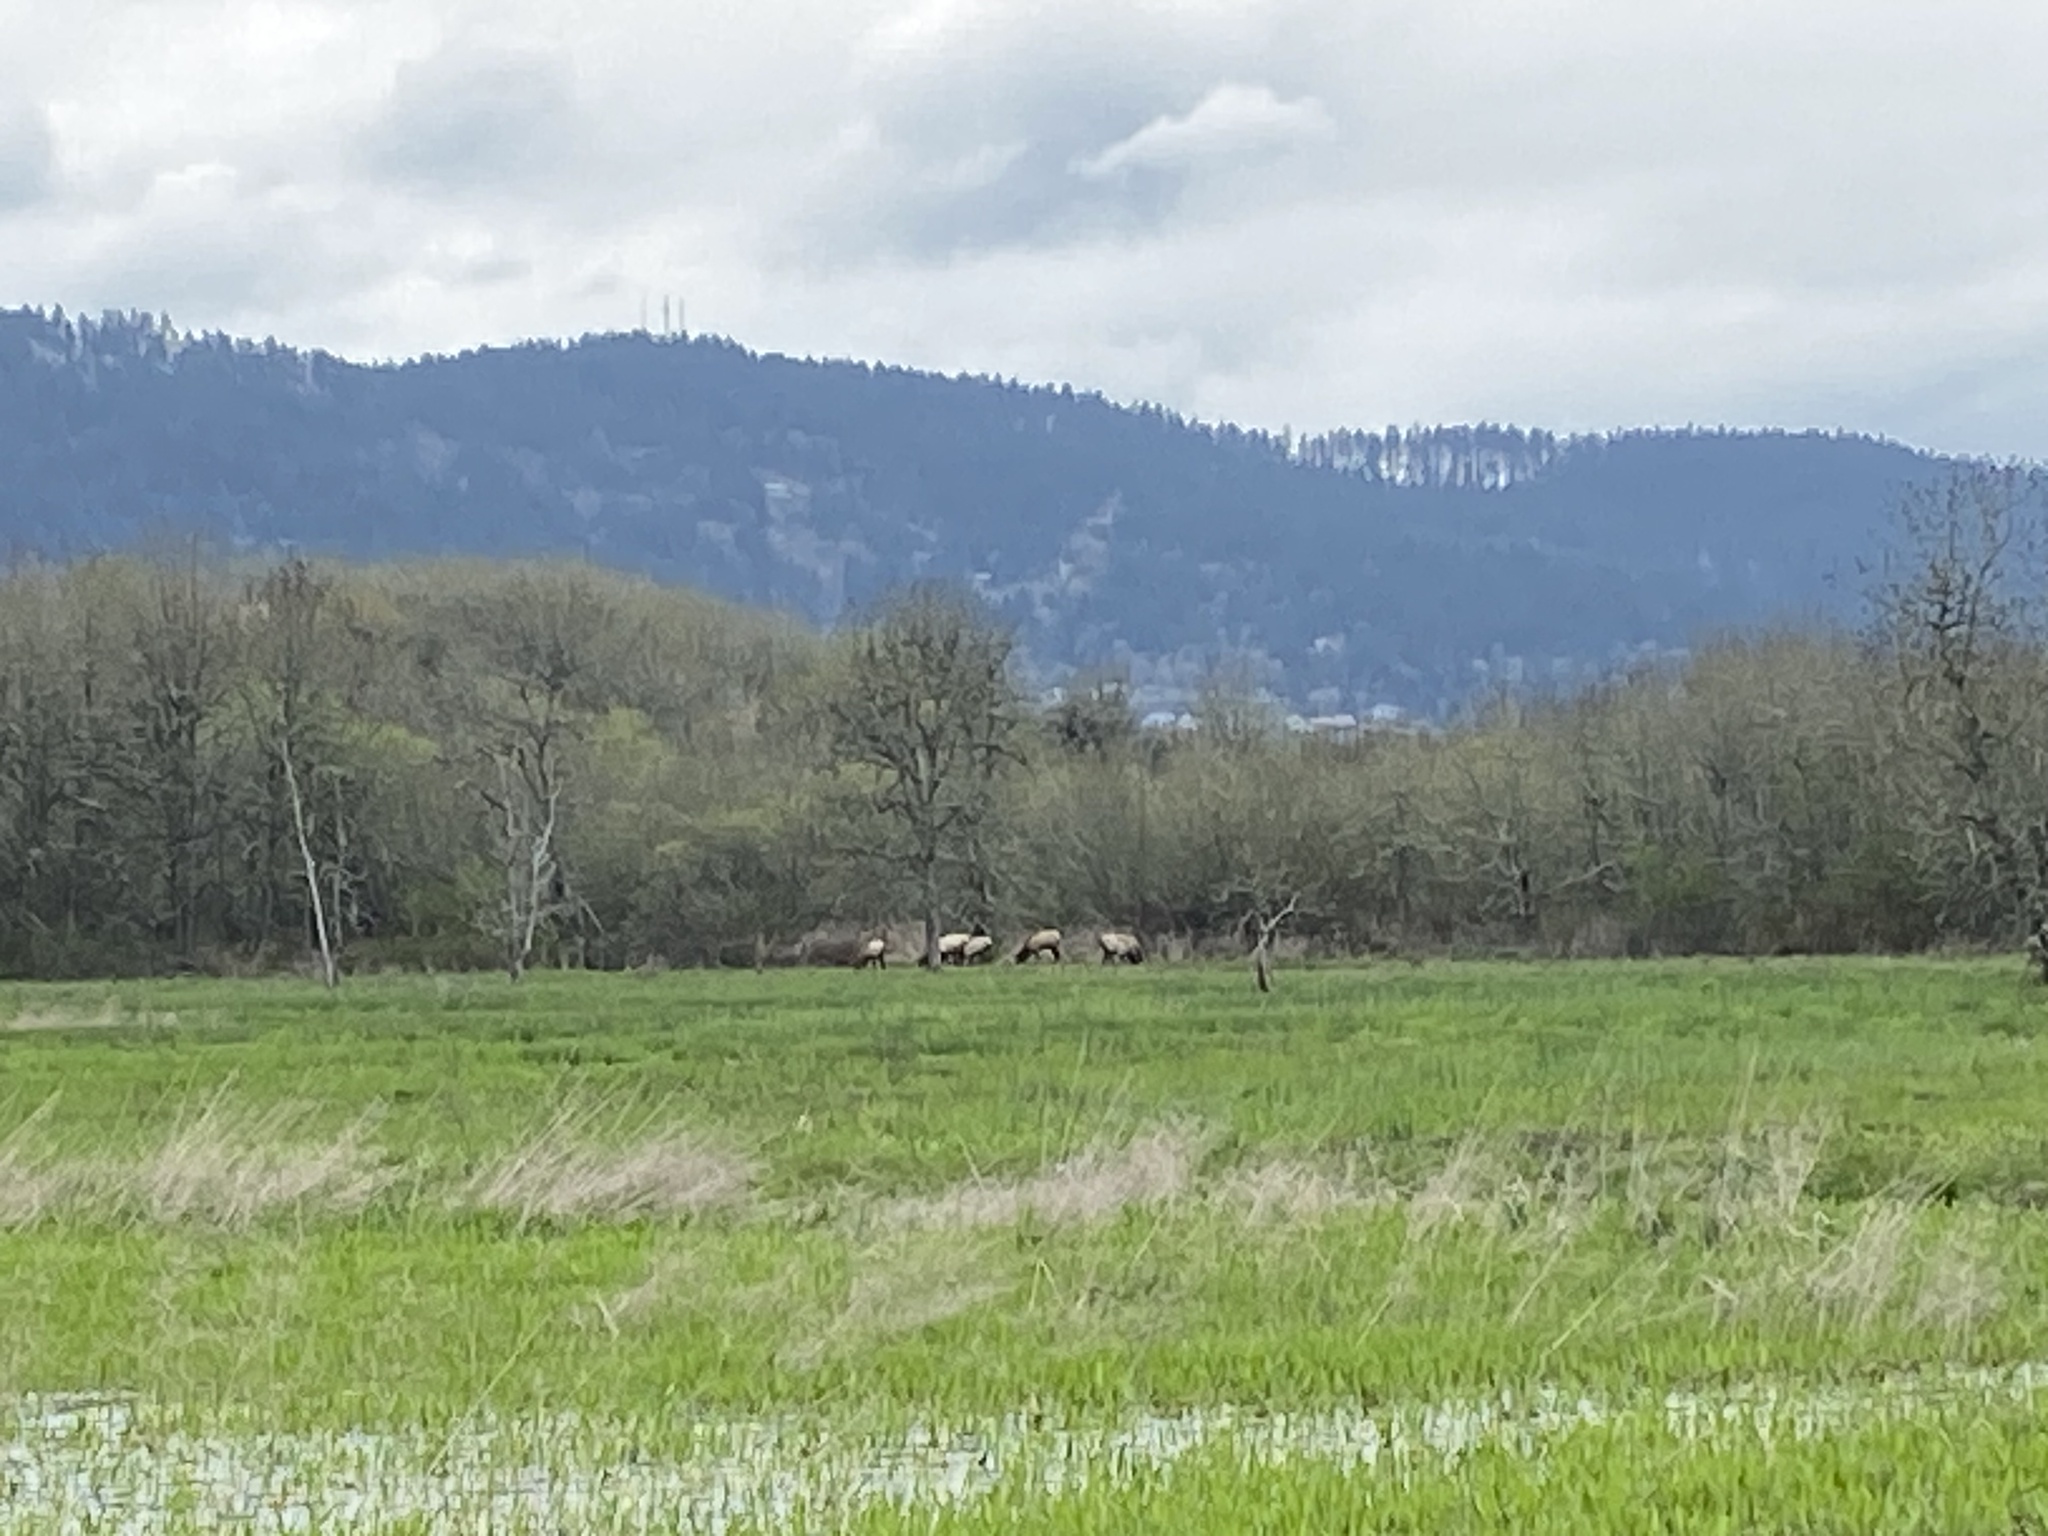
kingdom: Animalia
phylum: Chordata
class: Mammalia
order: Artiodactyla
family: Cervidae
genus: Cervus
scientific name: Cervus elaphus
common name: Red deer
